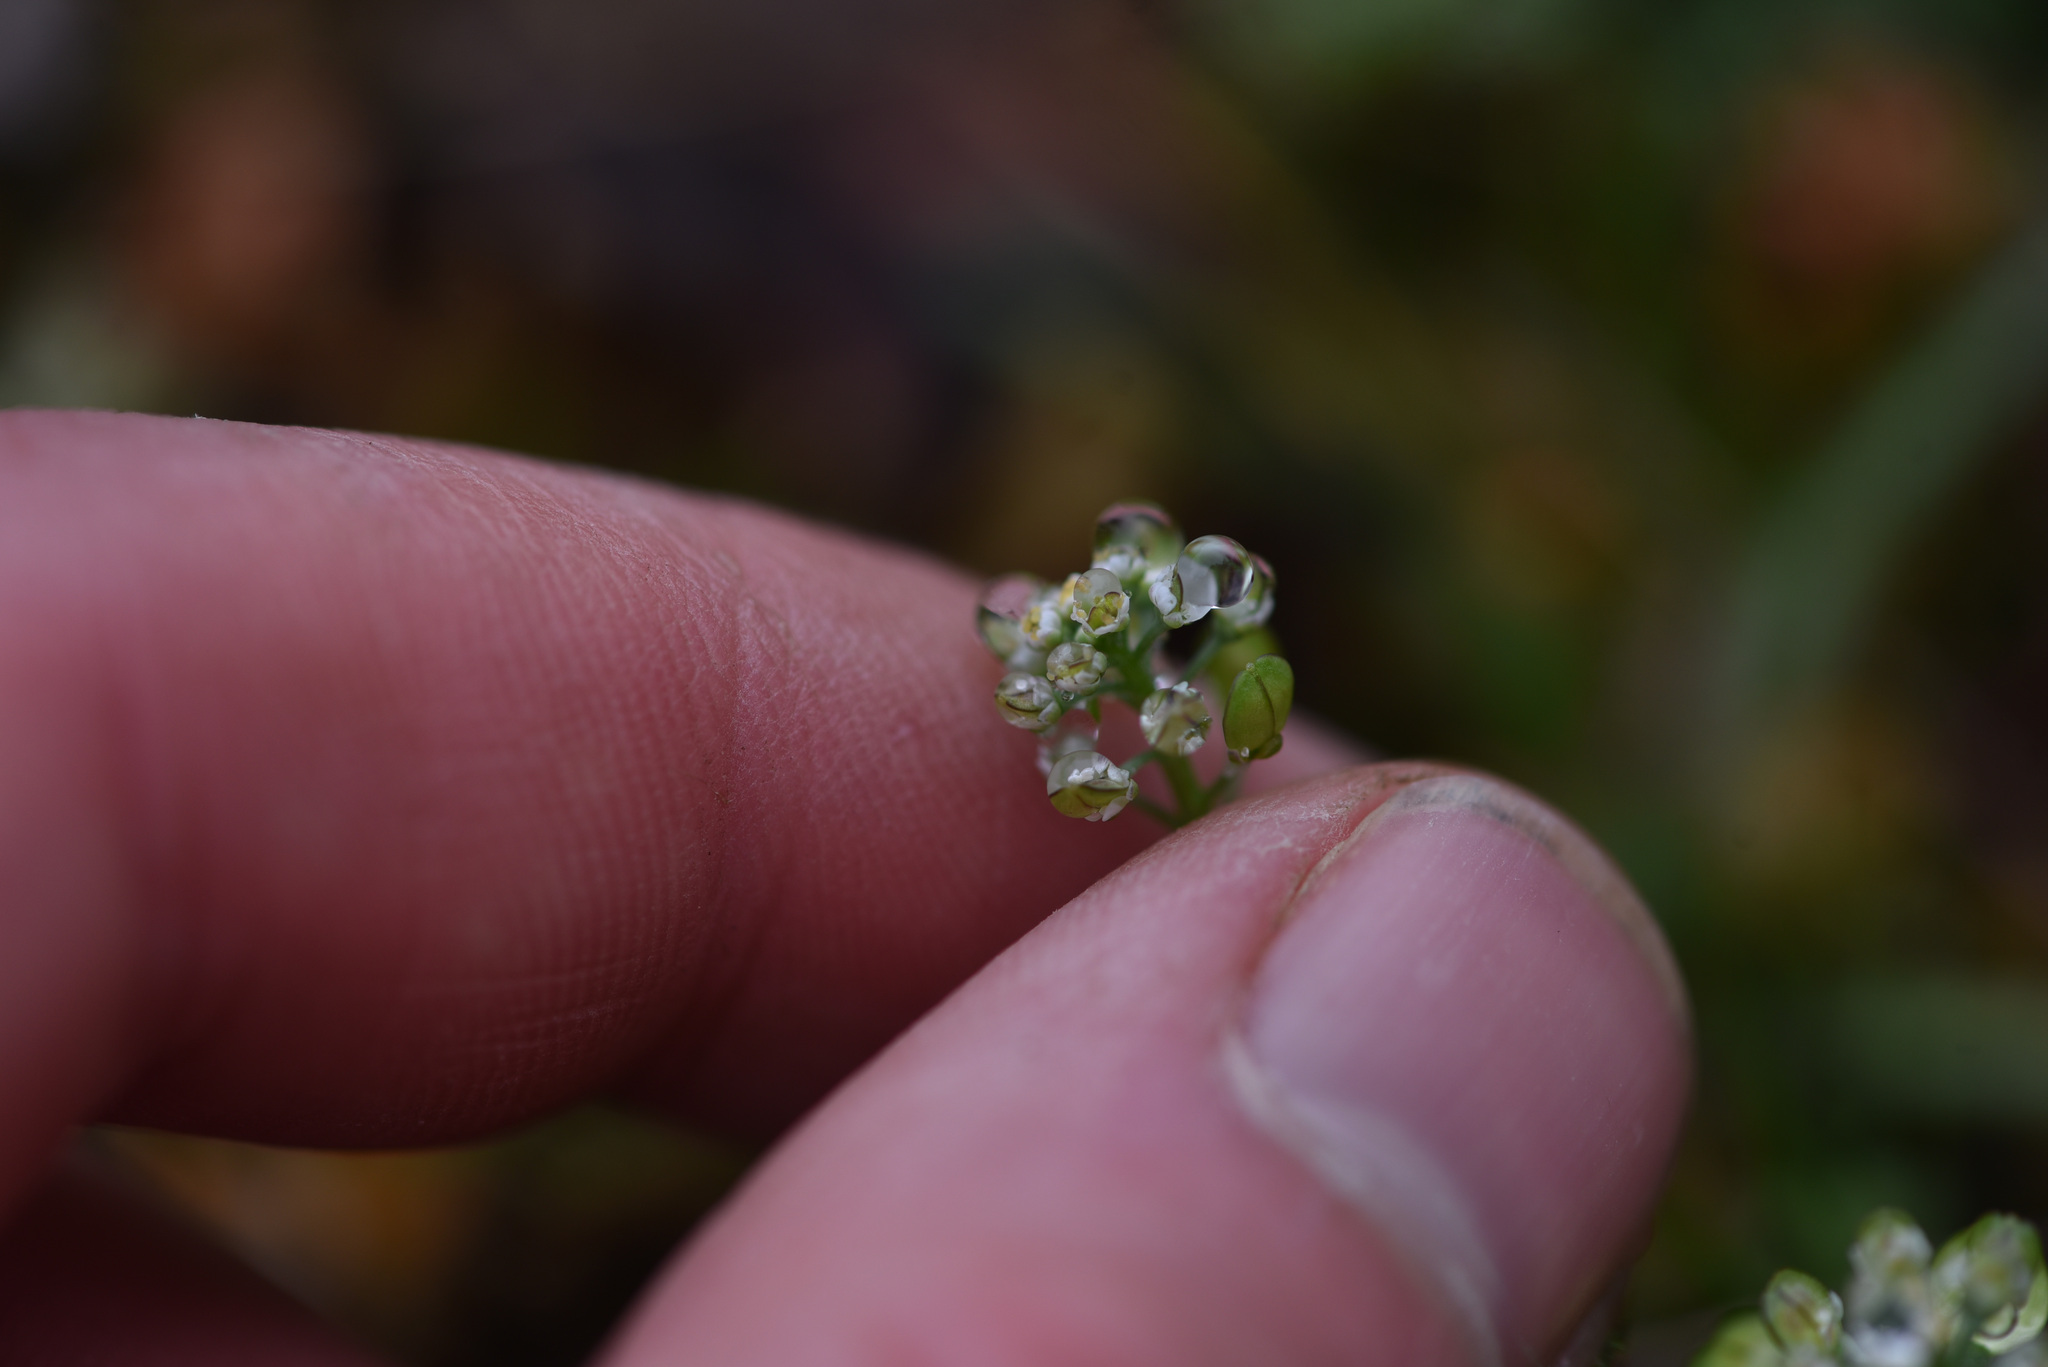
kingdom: Plantae
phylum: Tracheophyta
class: Magnoliopsida
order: Brassicales
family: Brassicaceae
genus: Teesdalia
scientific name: Teesdalia nudicaulis
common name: Shepherd's cress
